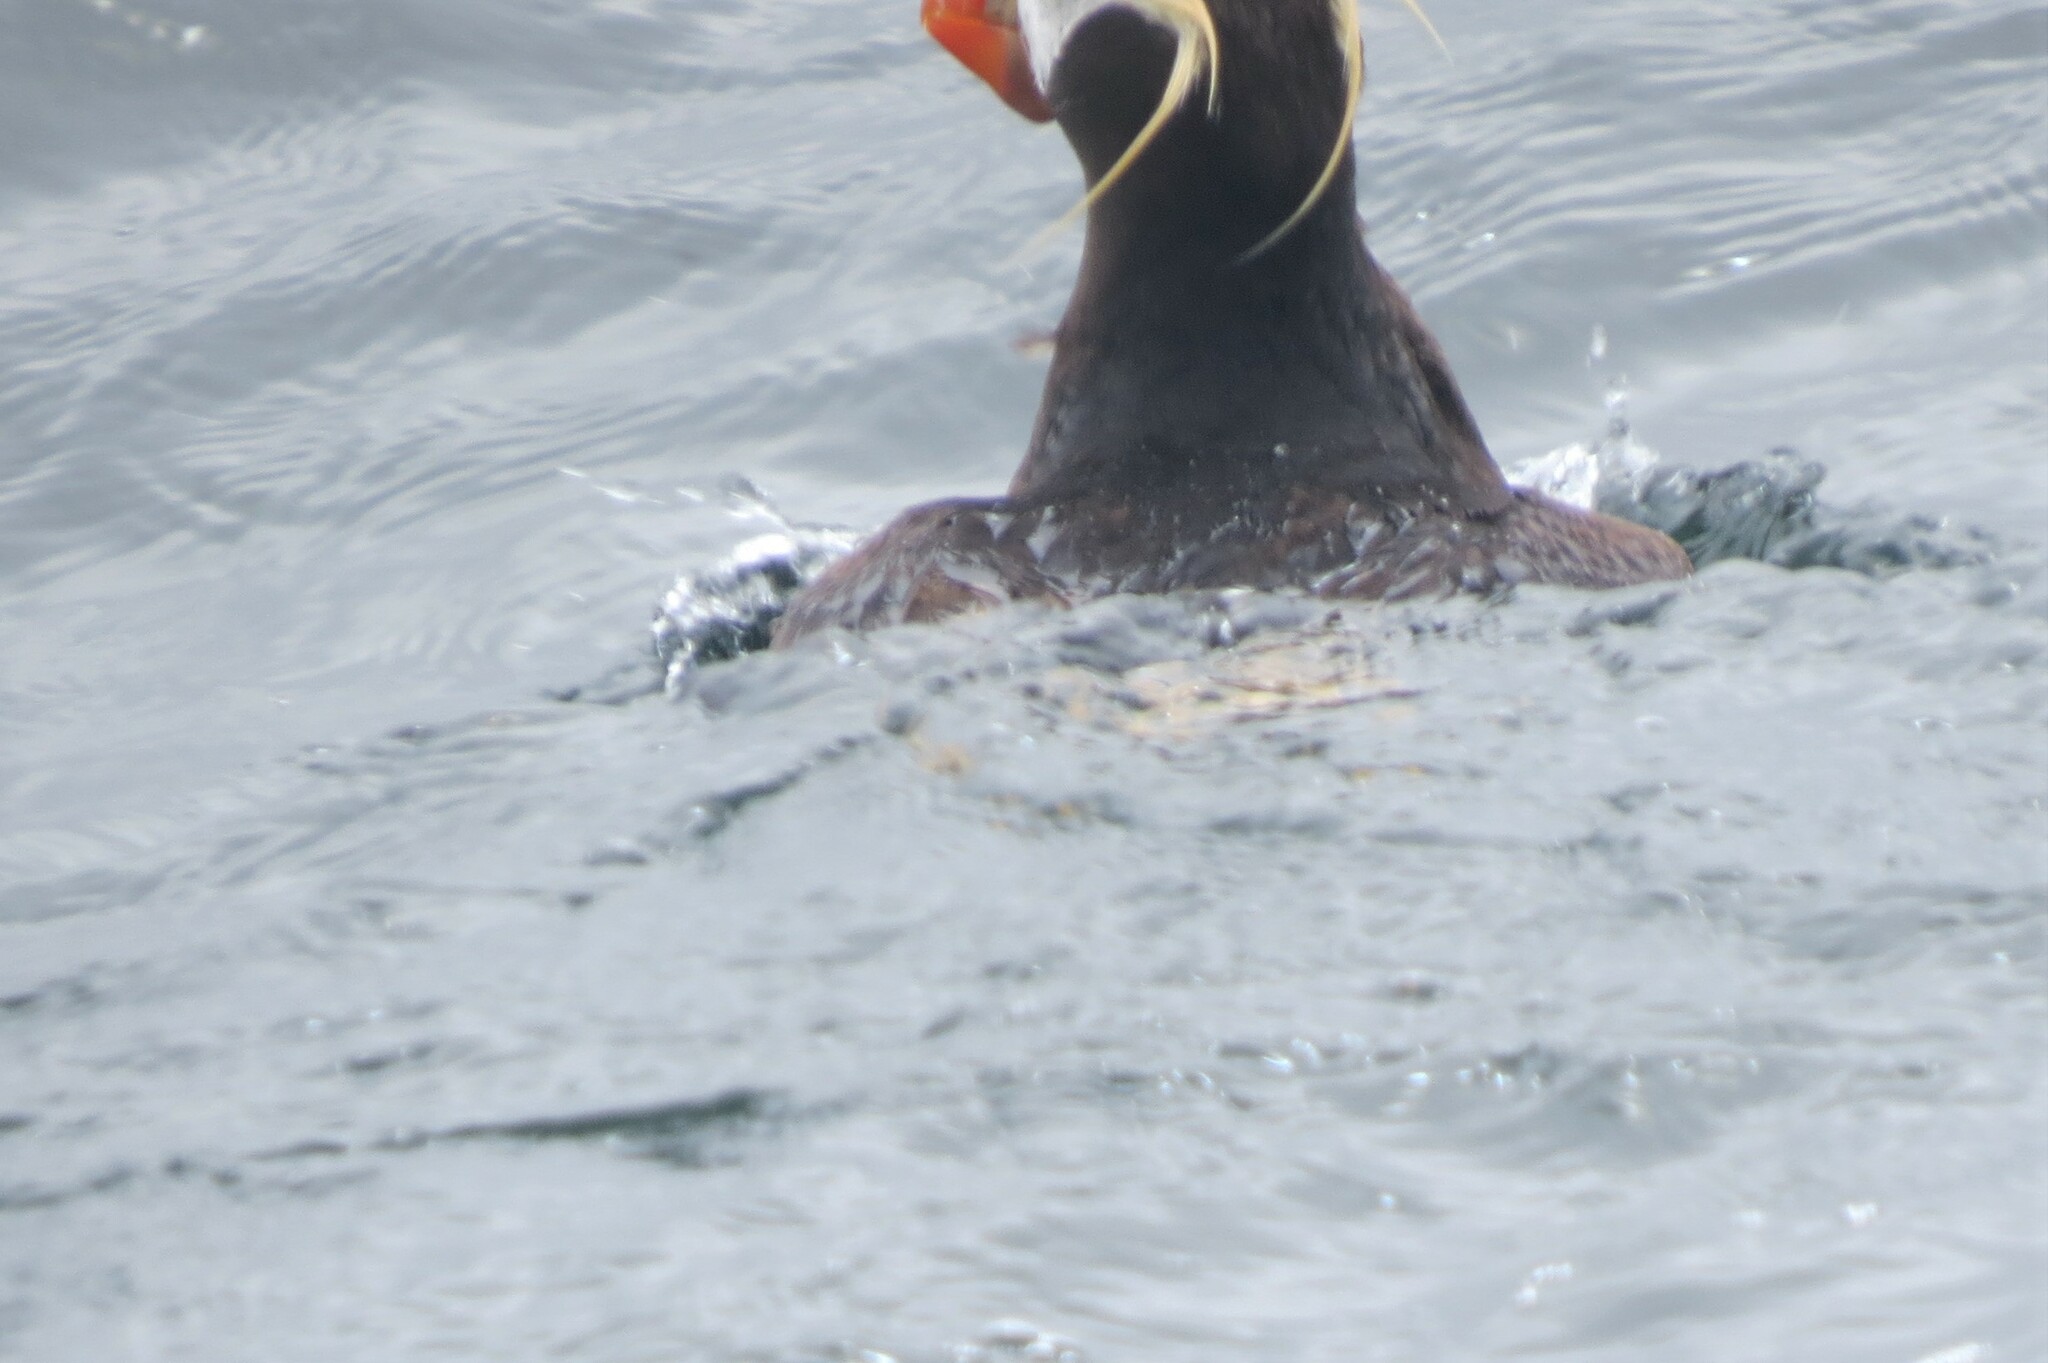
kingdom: Animalia
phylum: Chordata
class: Aves
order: Charadriiformes
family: Alcidae
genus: Fratercula
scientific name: Fratercula cirrhata
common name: Tufted puffin
